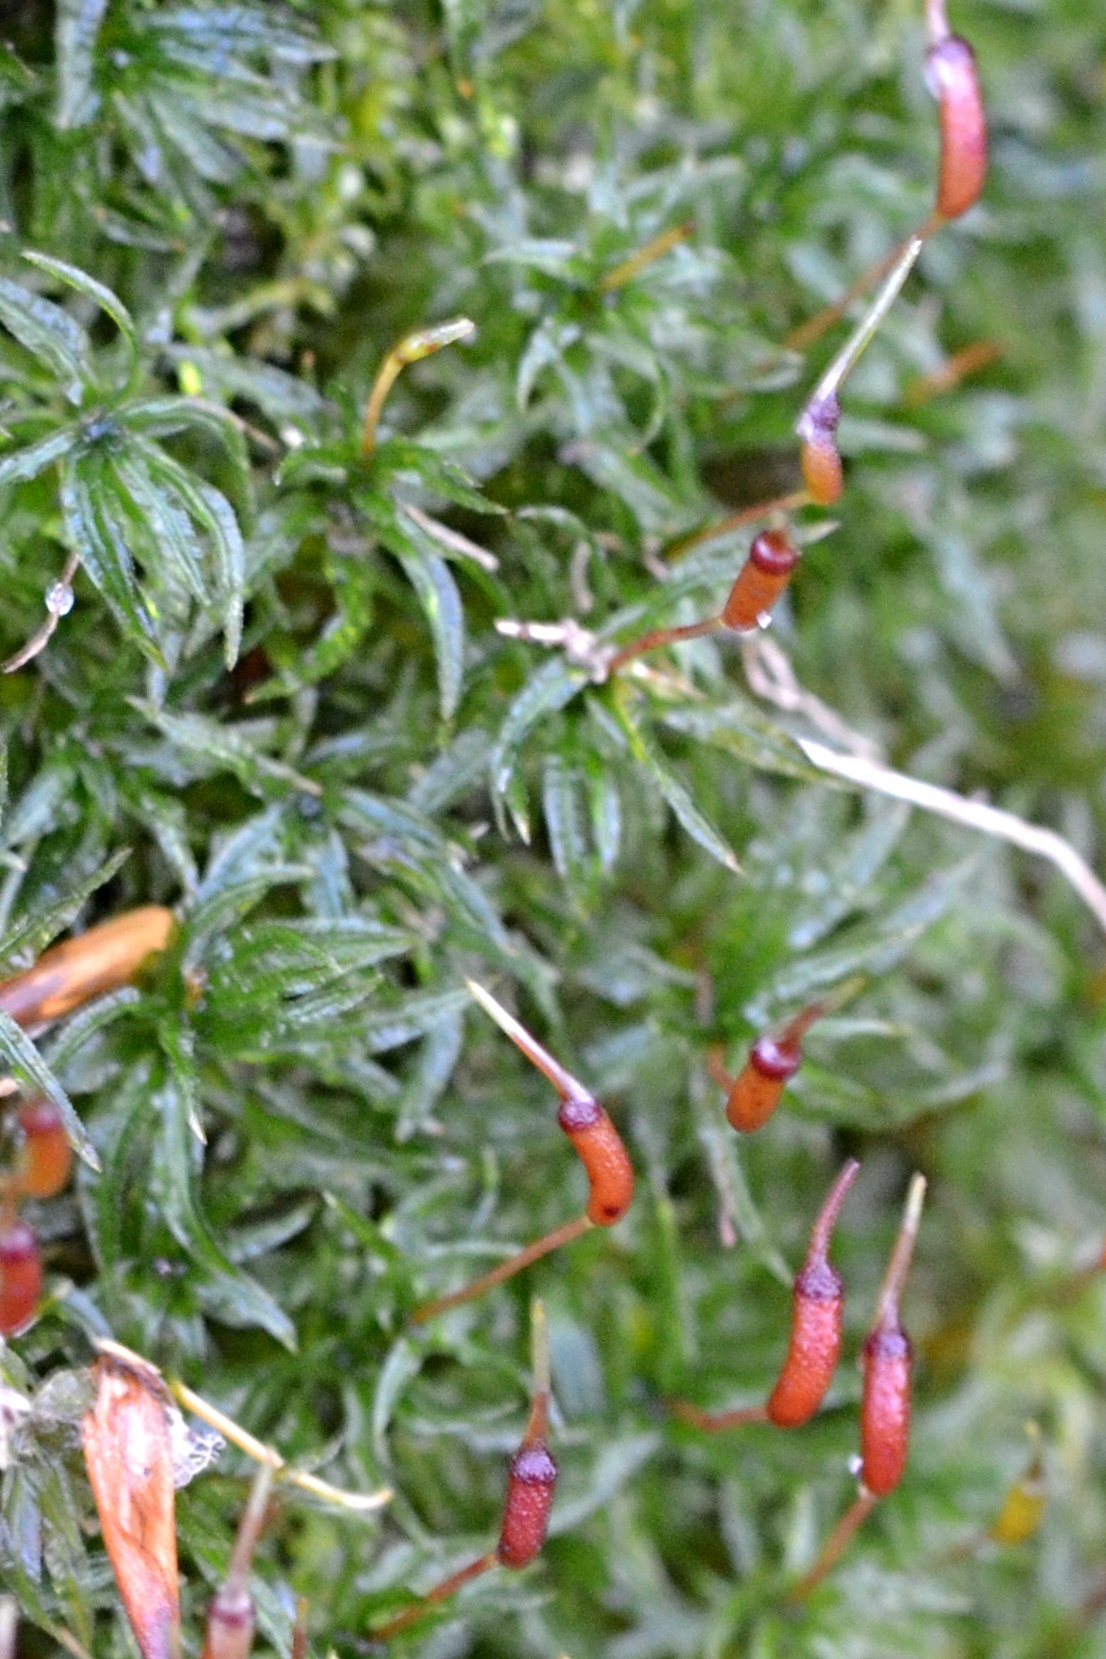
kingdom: Plantae
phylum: Bryophyta
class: Polytrichopsida
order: Polytrichales
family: Polytrichaceae
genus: Atrichum
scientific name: Atrichum undulatum
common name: Common smoothcap
